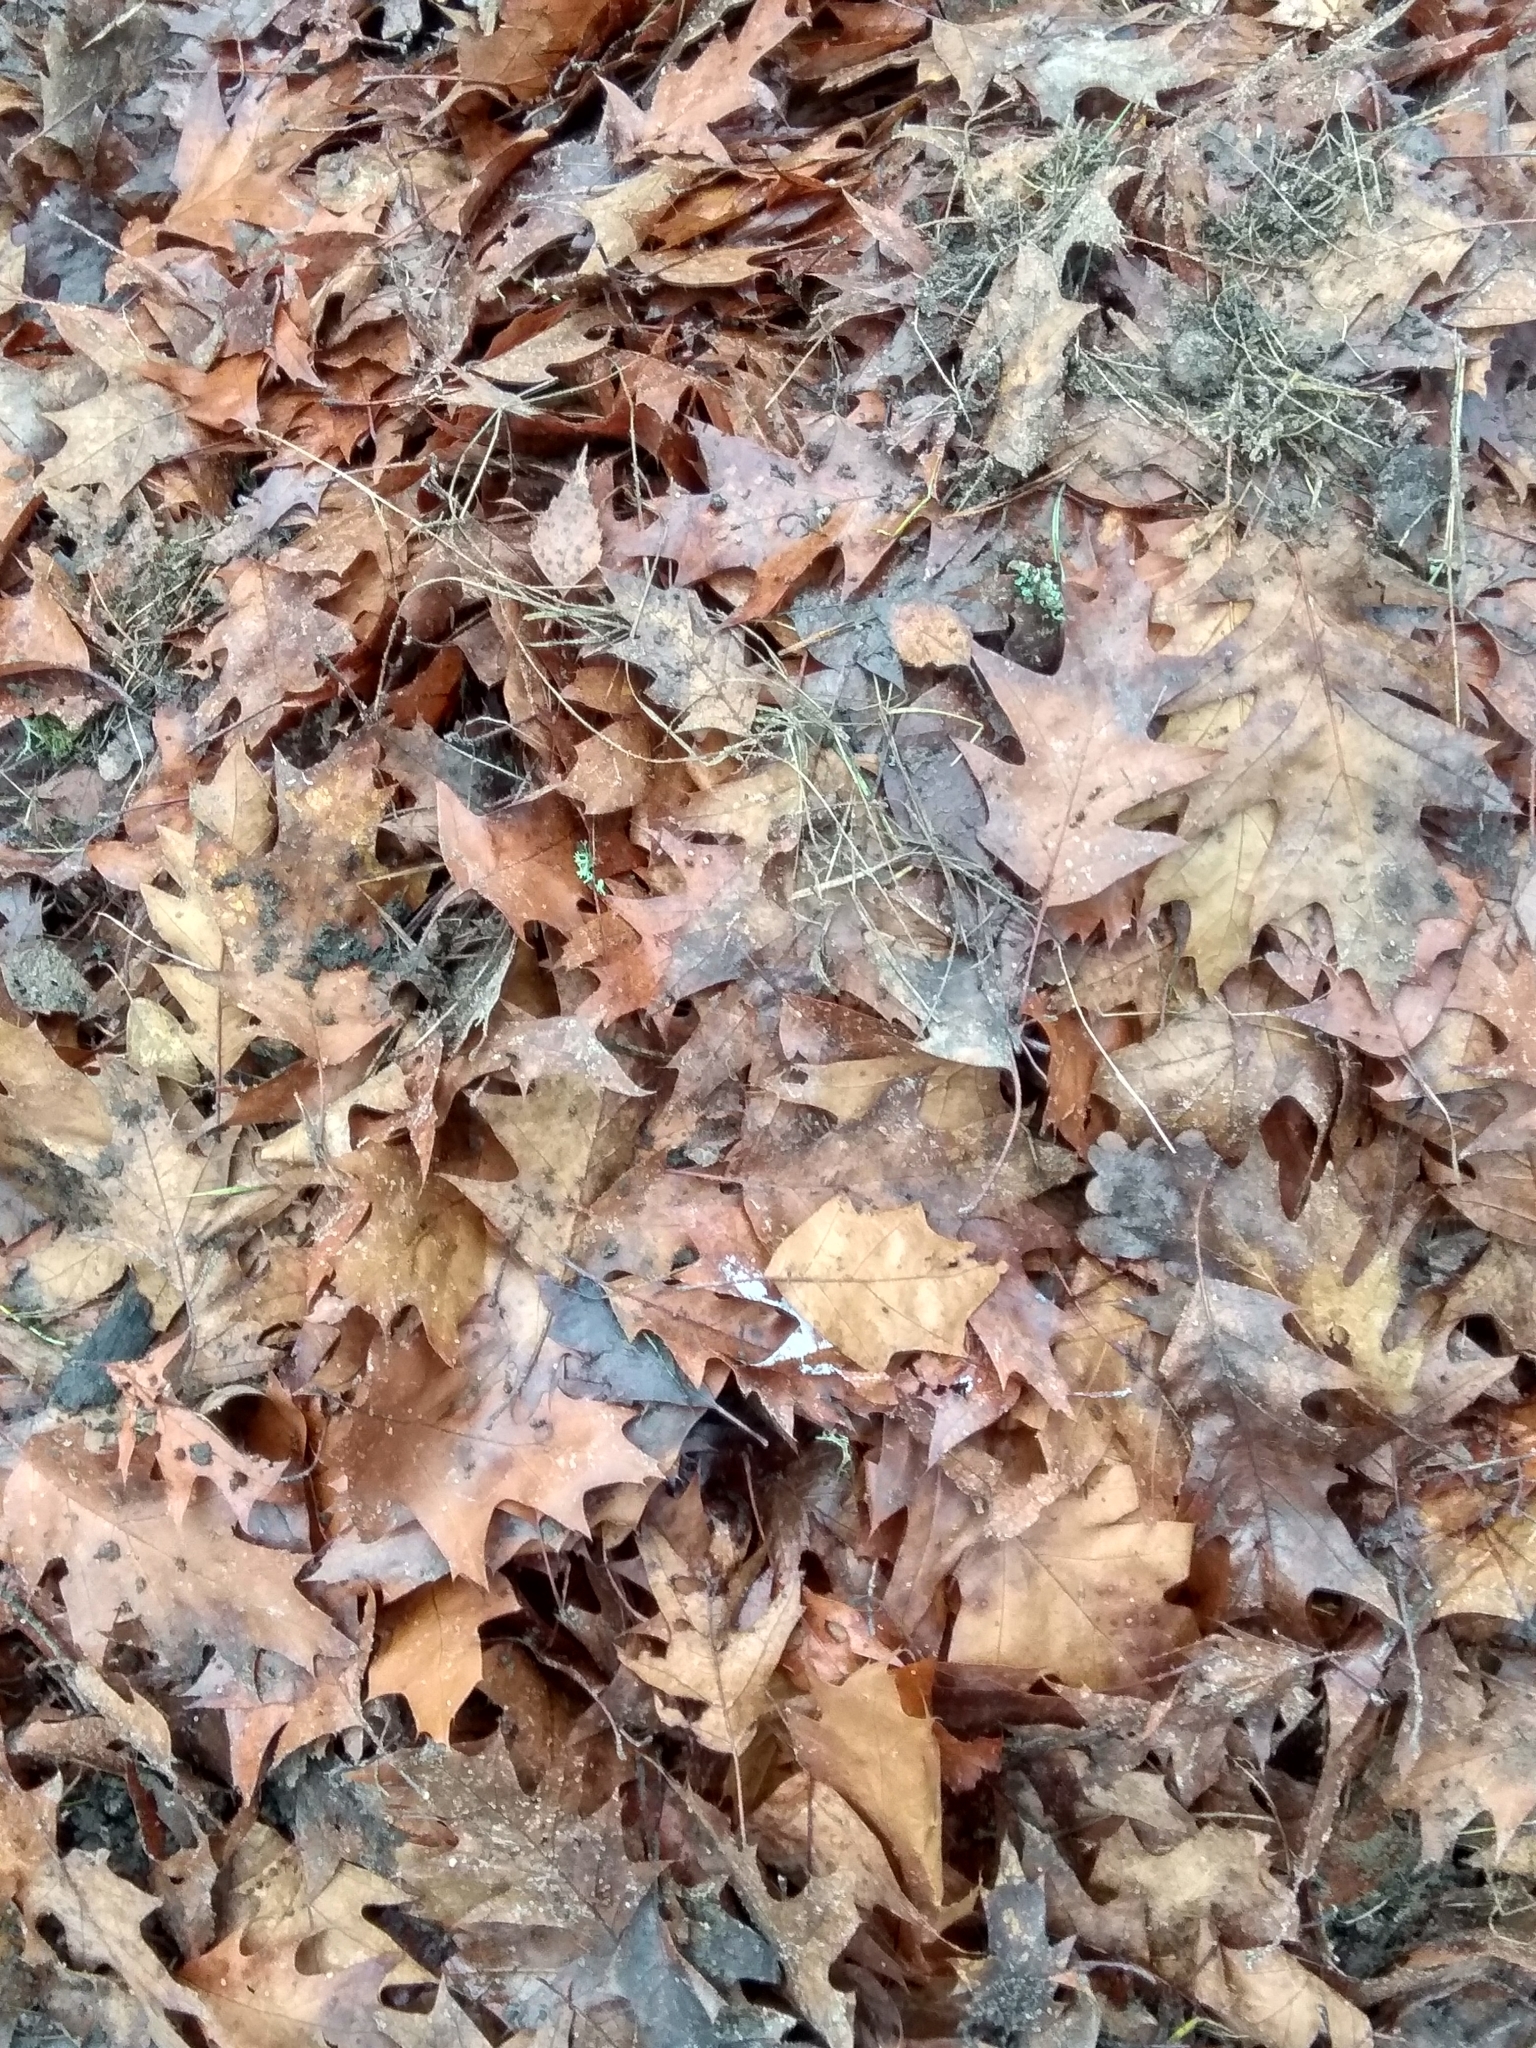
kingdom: Plantae
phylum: Tracheophyta
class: Magnoliopsida
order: Fagales
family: Fagaceae
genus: Quercus
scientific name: Quercus rubra
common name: Red oak
